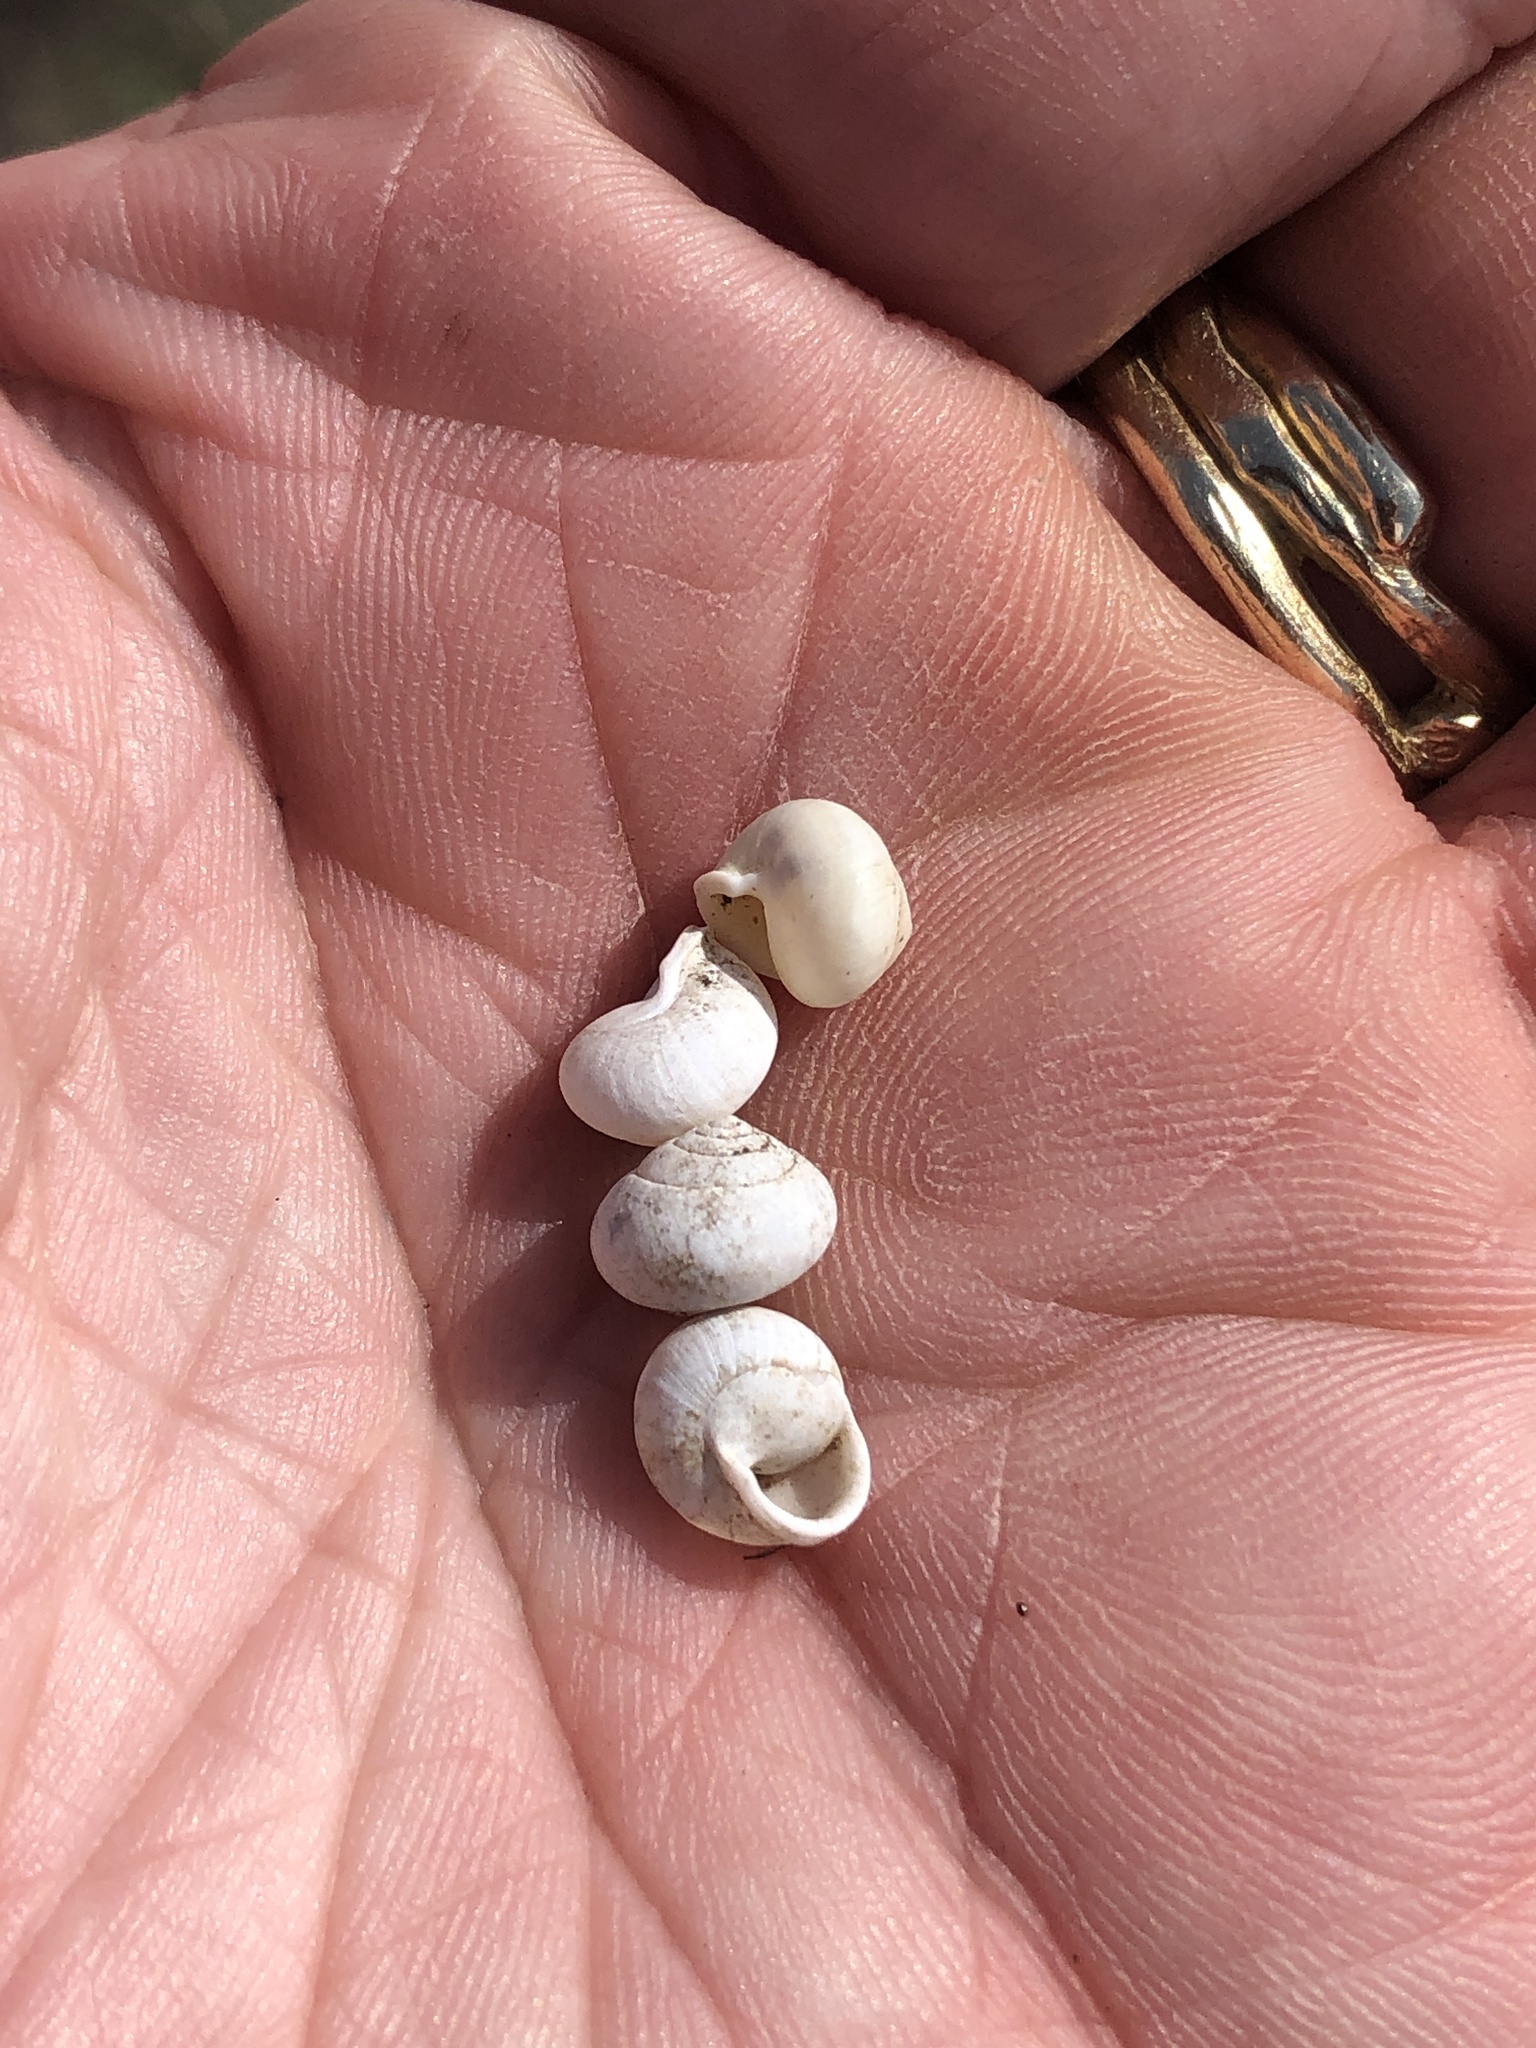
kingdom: Animalia
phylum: Mollusca
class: Gastropoda
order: Cycloneritida
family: Helicinidae
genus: Helicina
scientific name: Helicina orbiculata
